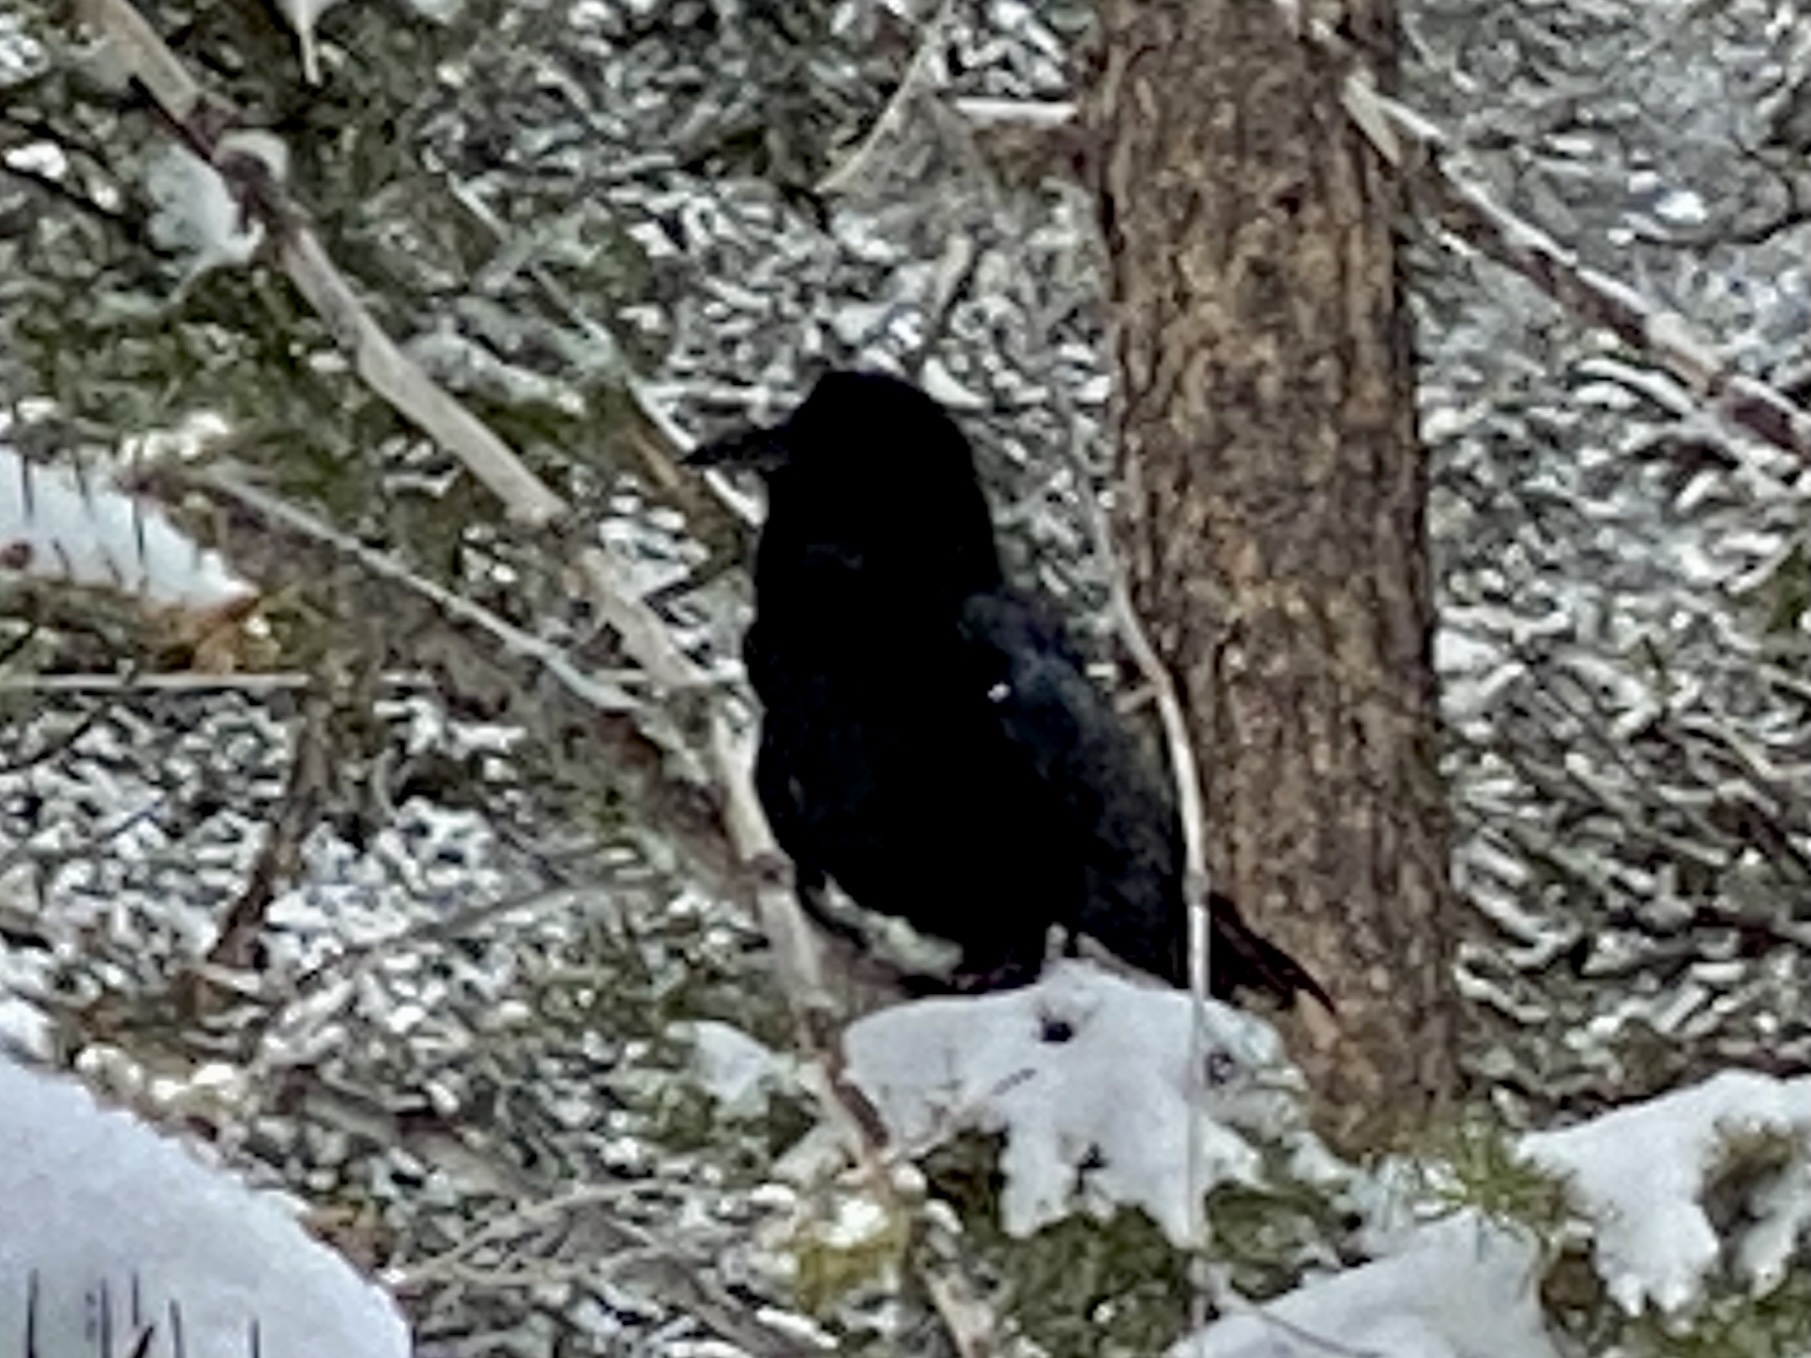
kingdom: Animalia
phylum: Chordata
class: Aves
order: Passeriformes
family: Corvidae
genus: Corvus
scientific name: Corvus corax
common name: Common raven
